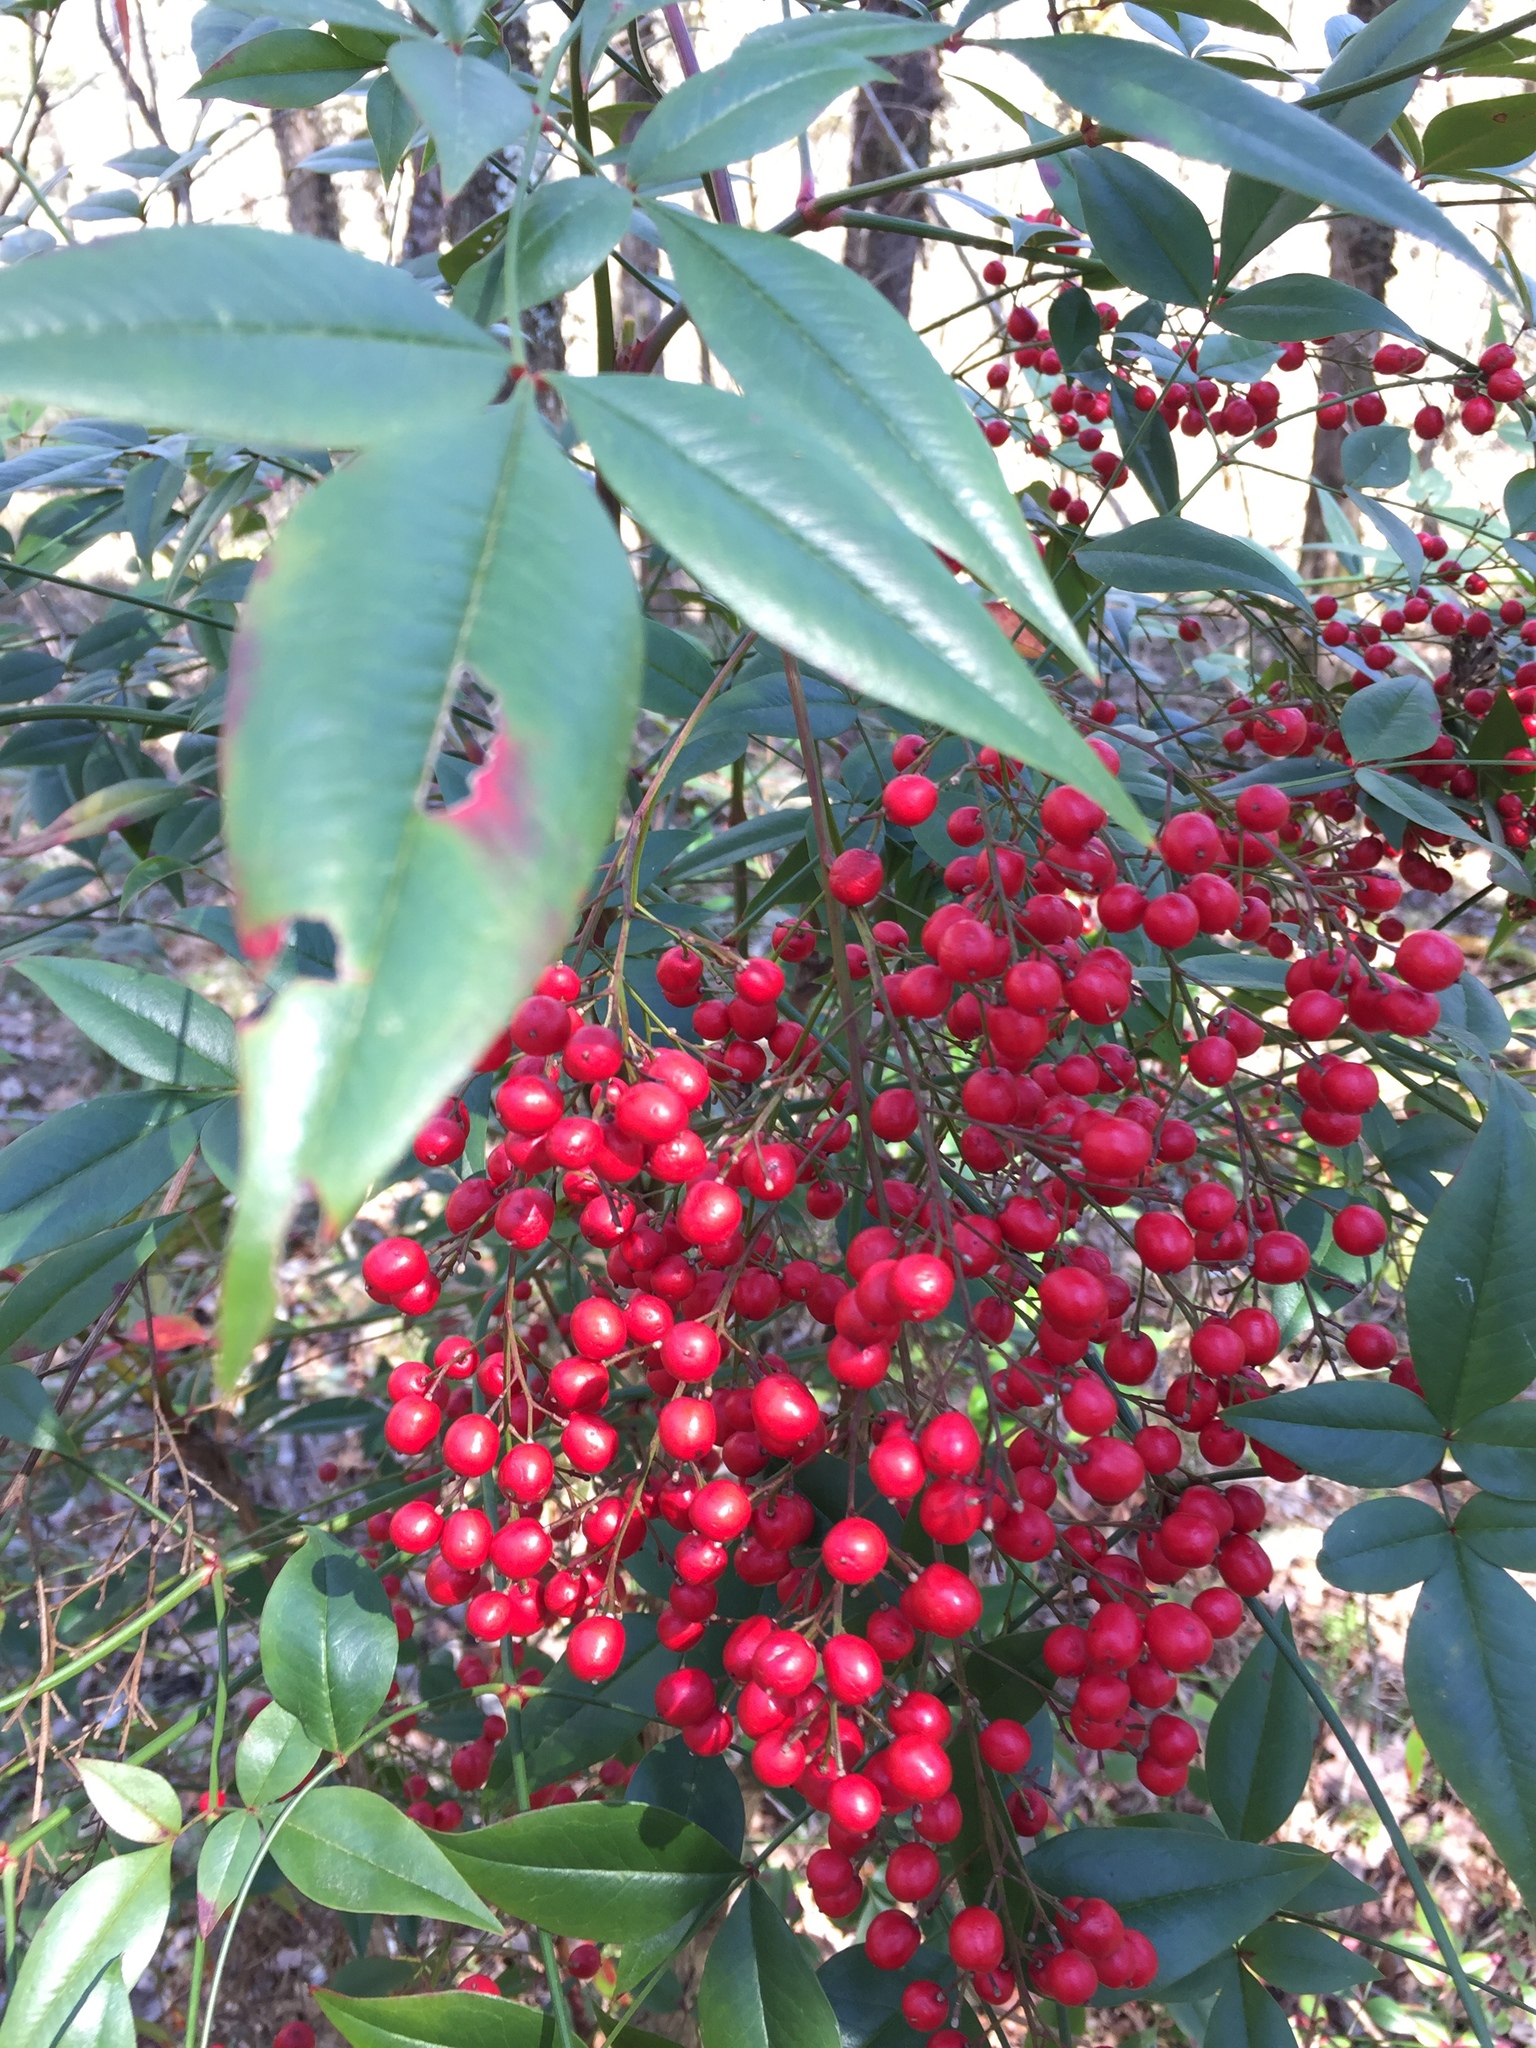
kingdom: Plantae
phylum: Tracheophyta
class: Magnoliopsida
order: Ranunculales
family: Berberidaceae
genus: Nandina
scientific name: Nandina domestica
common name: Sacred bamboo
